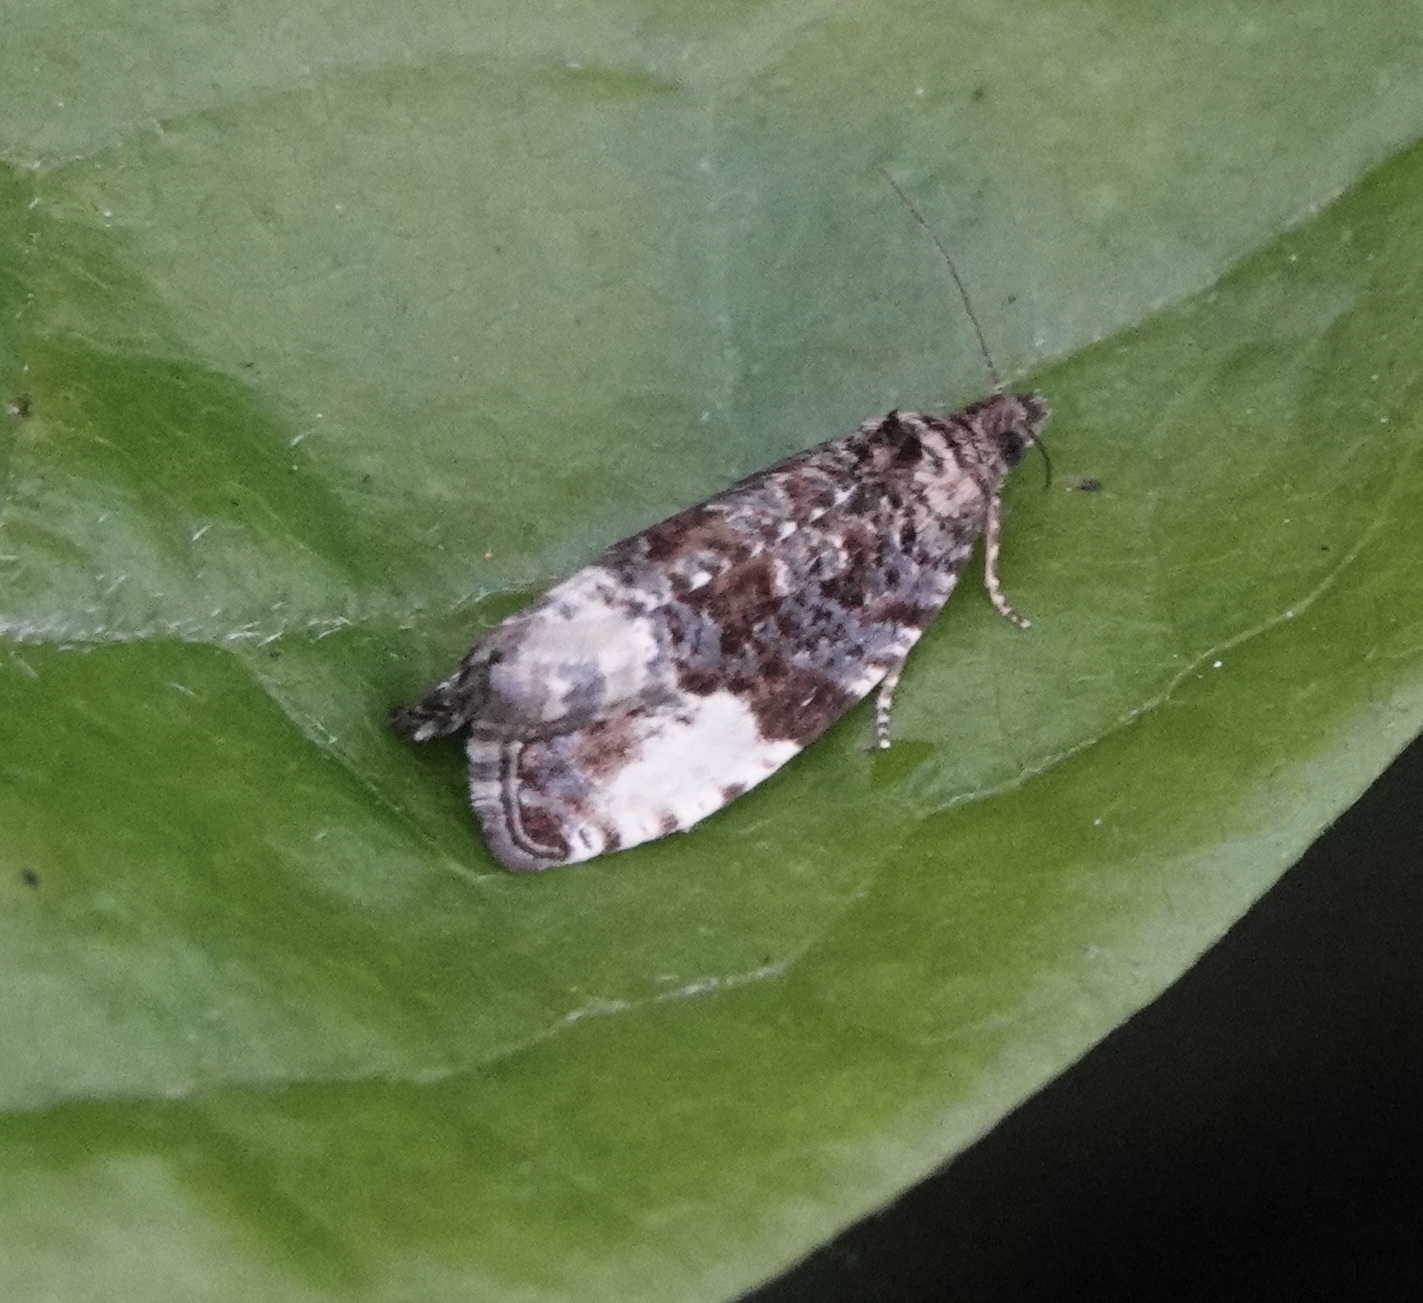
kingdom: Animalia
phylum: Arthropoda
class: Insecta
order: Lepidoptera
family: Tortricidae
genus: Hedya
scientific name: Hedya pruniana
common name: Plum tortrix
